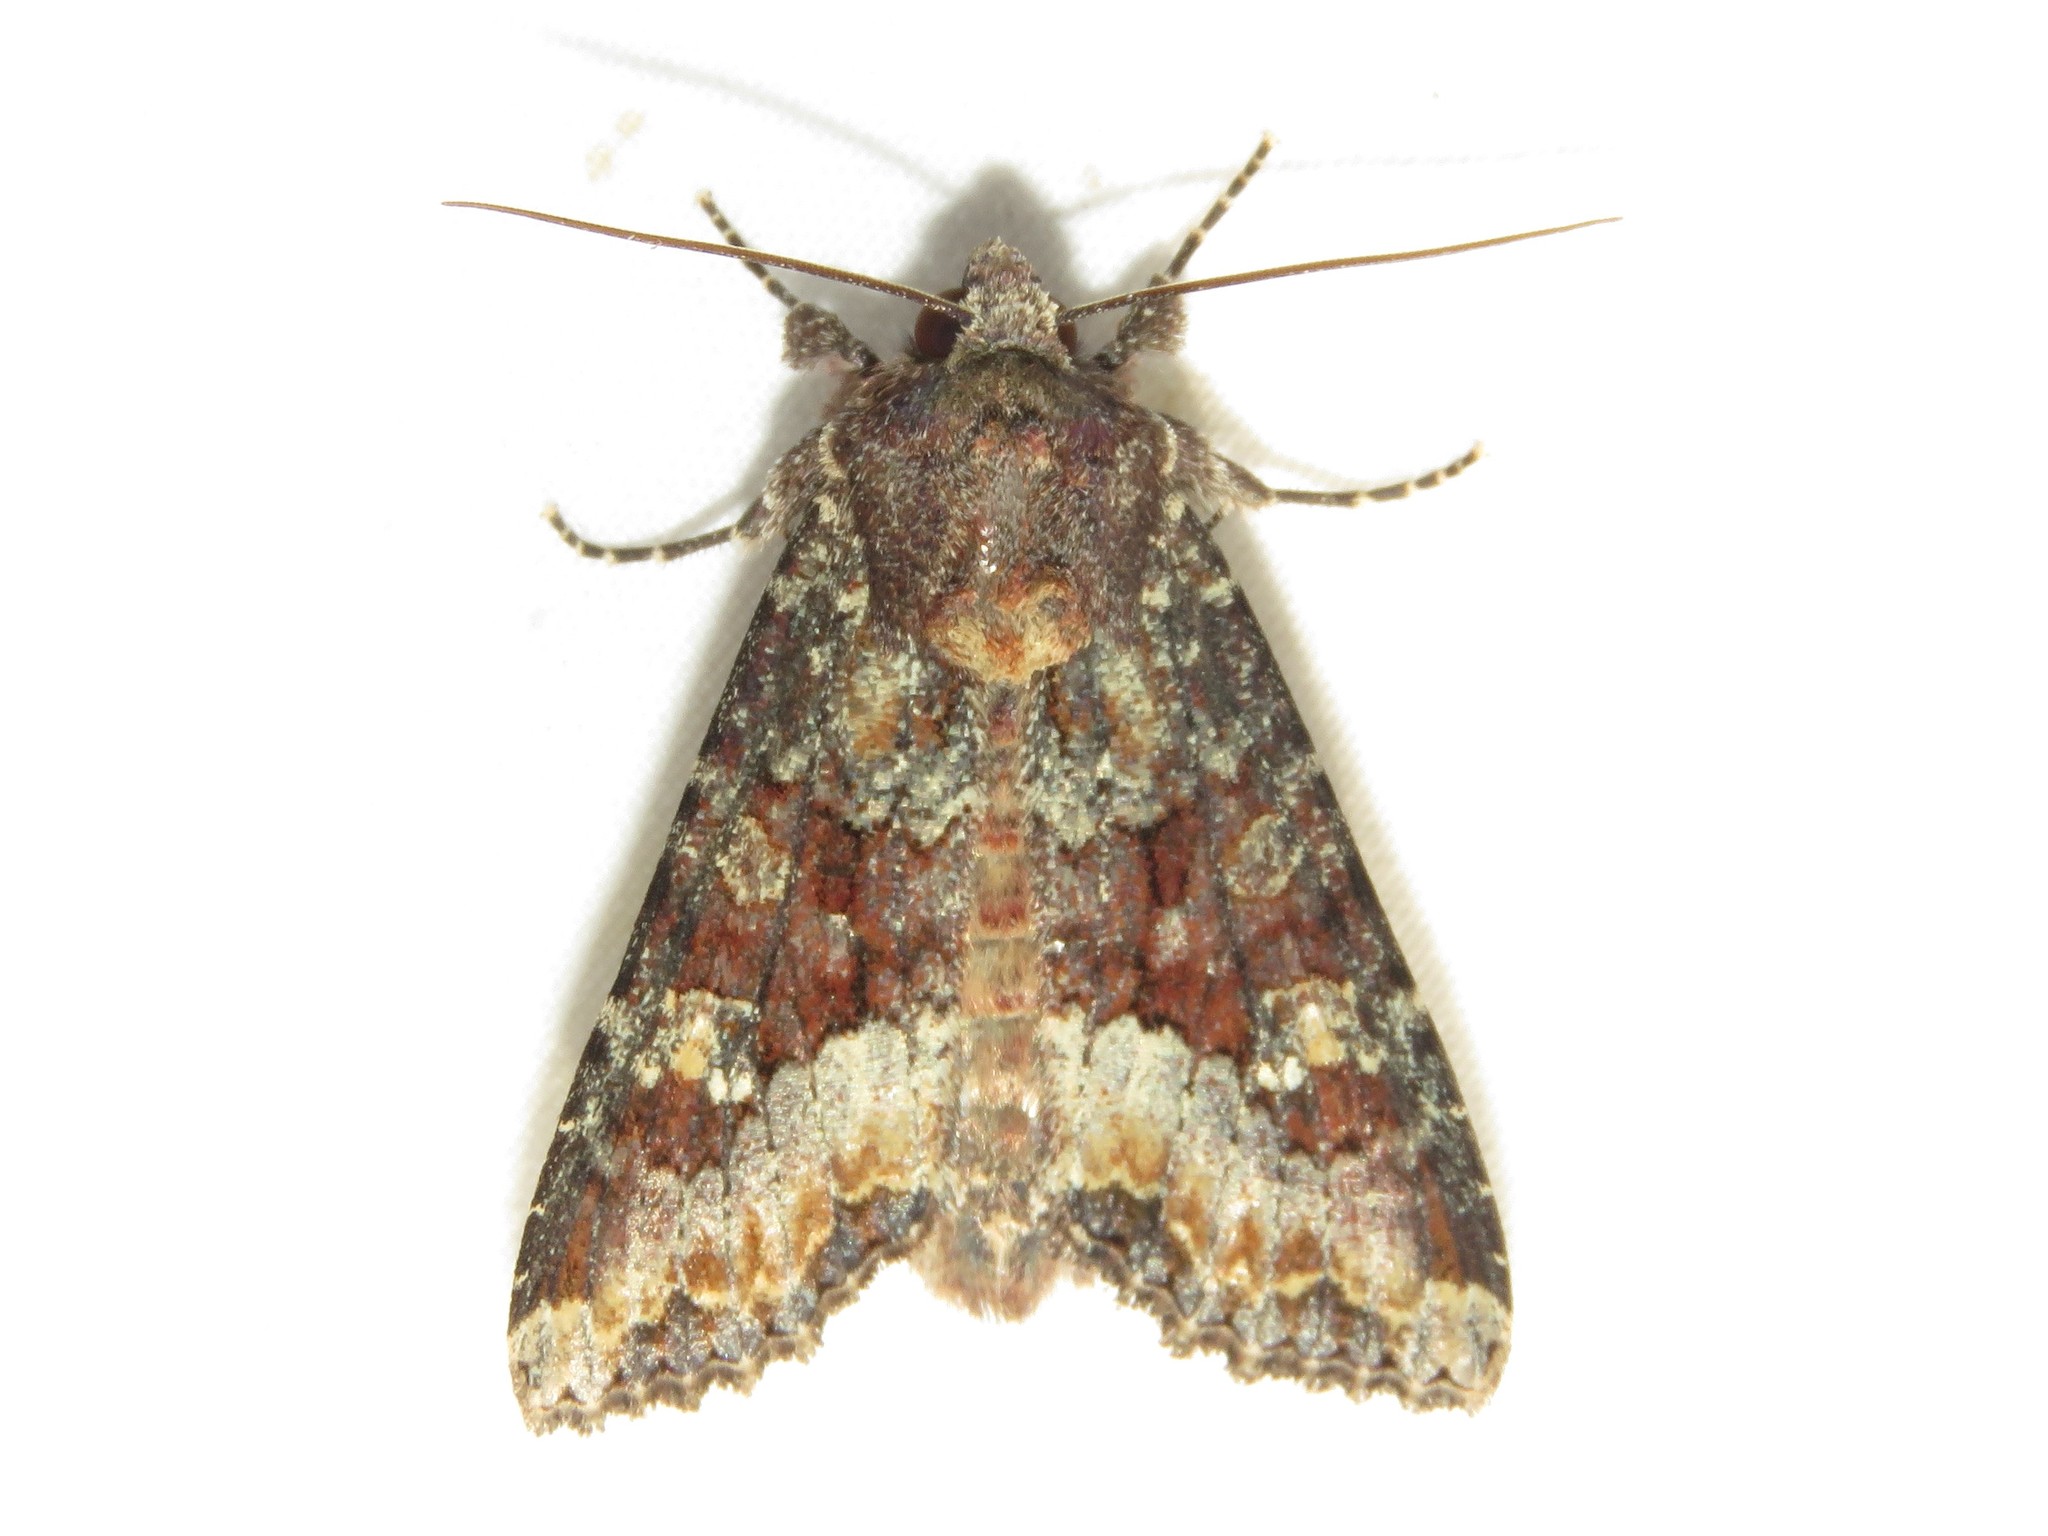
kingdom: Animalia
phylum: Arthropoda
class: Insecta
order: Lepidoptera
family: Noctuidae
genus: Apamea
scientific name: Apamea amputatrix
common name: Yellow-headed cutworm moth
